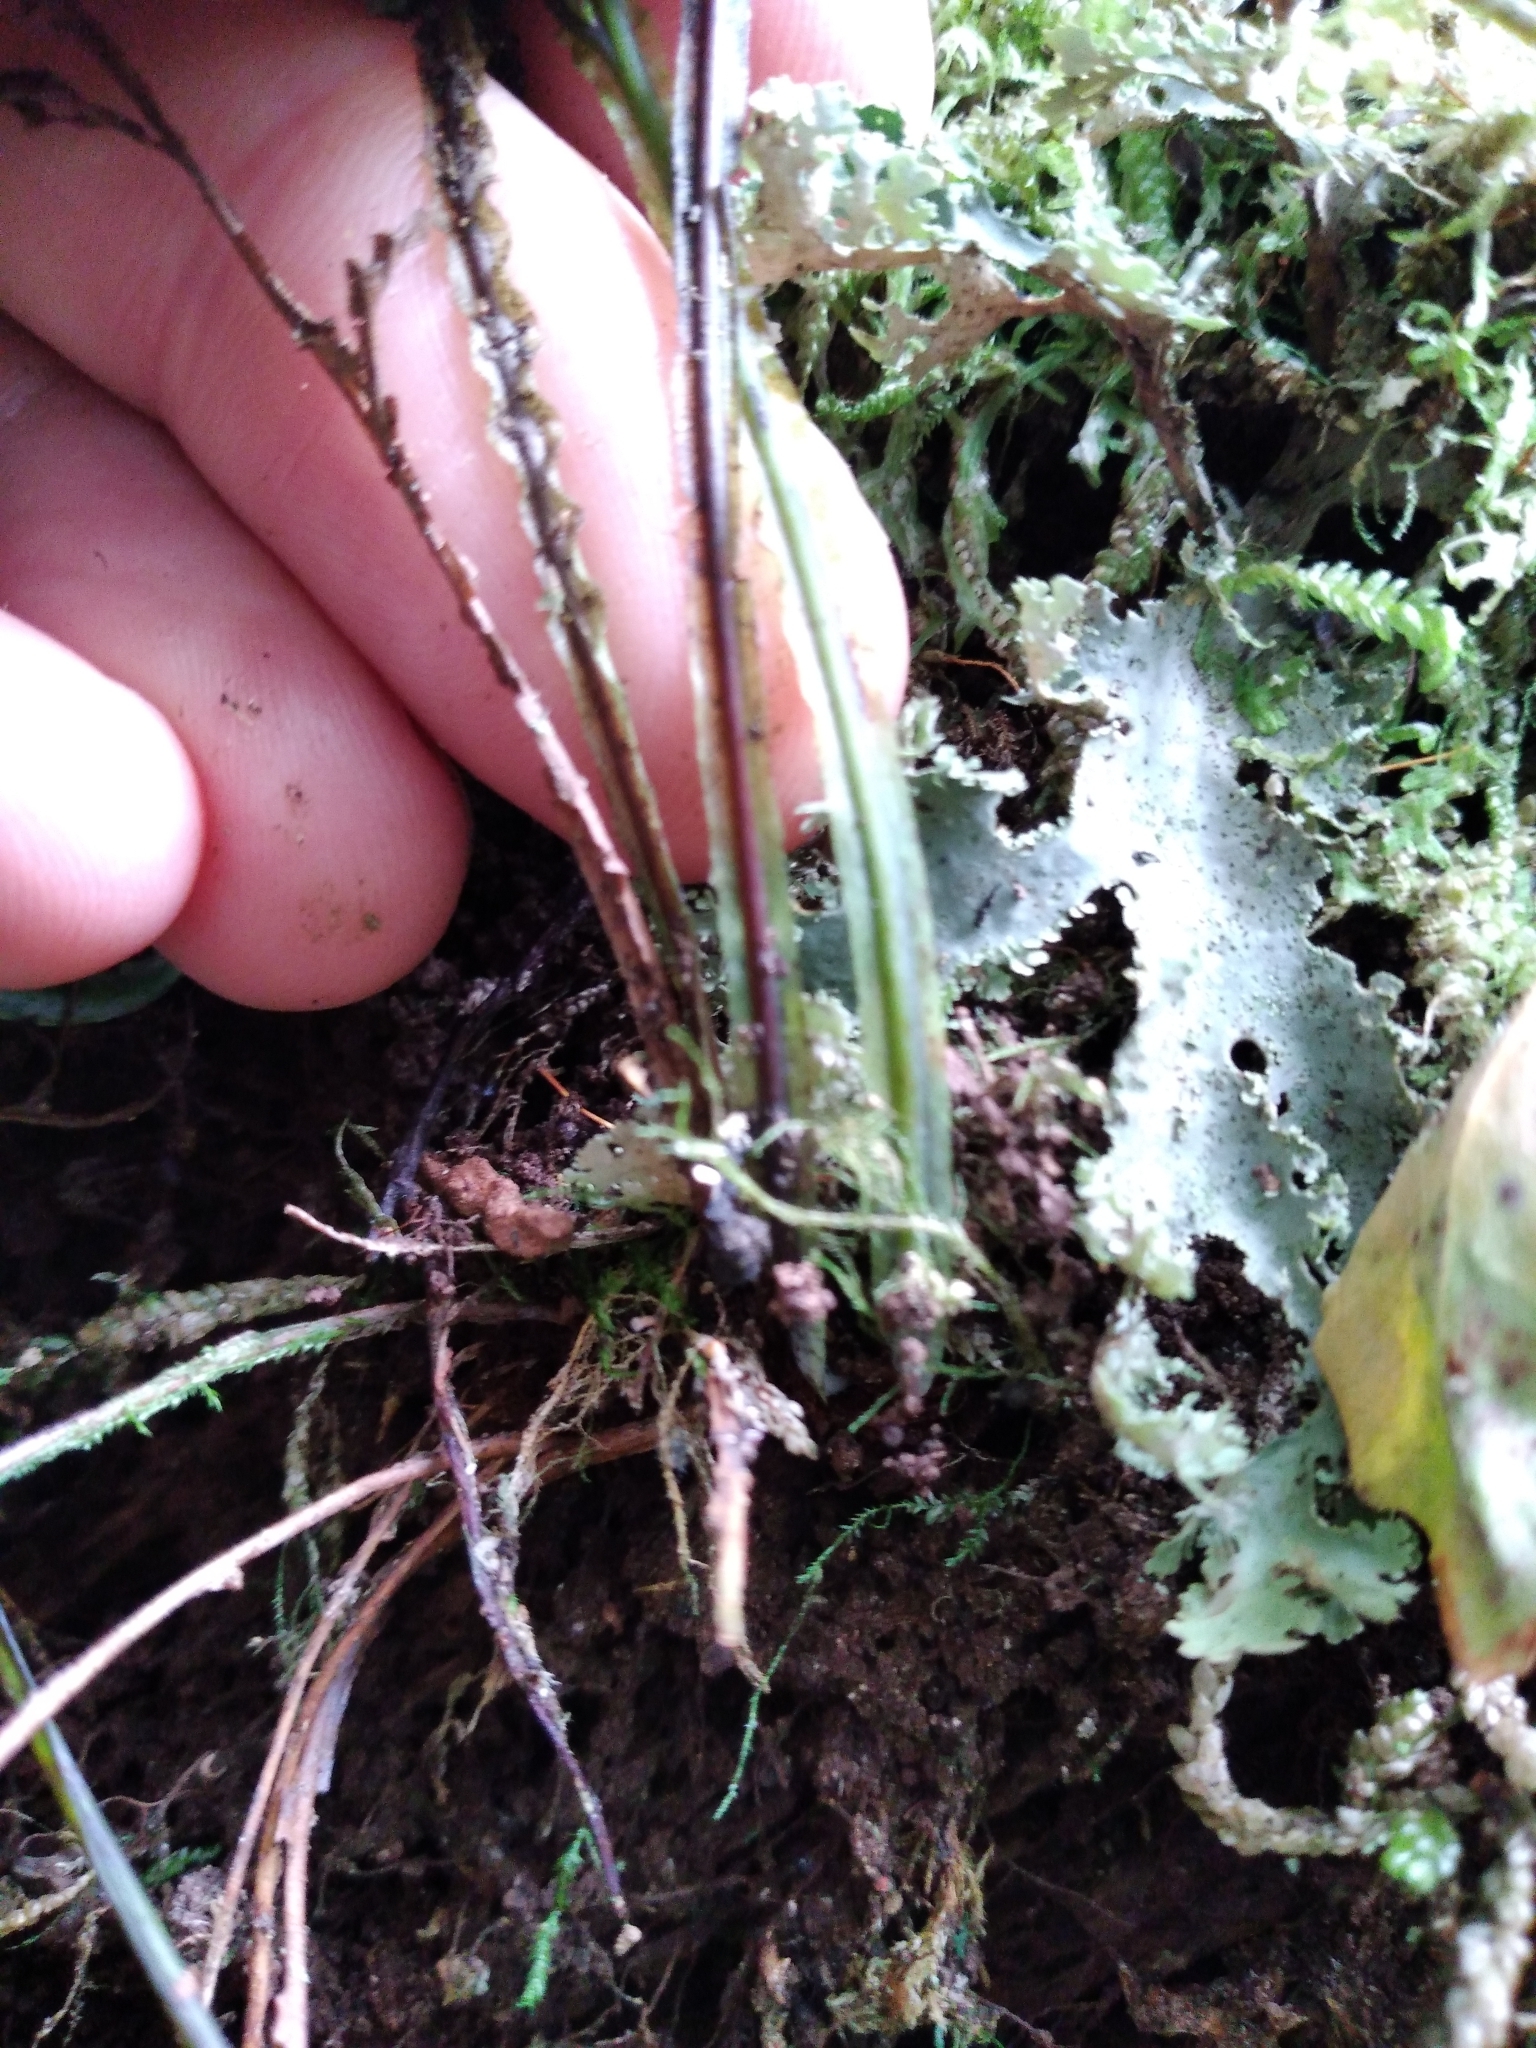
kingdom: Plantae
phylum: Tracheophyta
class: Polypodiopsida
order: Hymenophyllales
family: Hymenophyllaceae
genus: Hymenophyllum
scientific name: Hymenophyllum pulcherrimum
